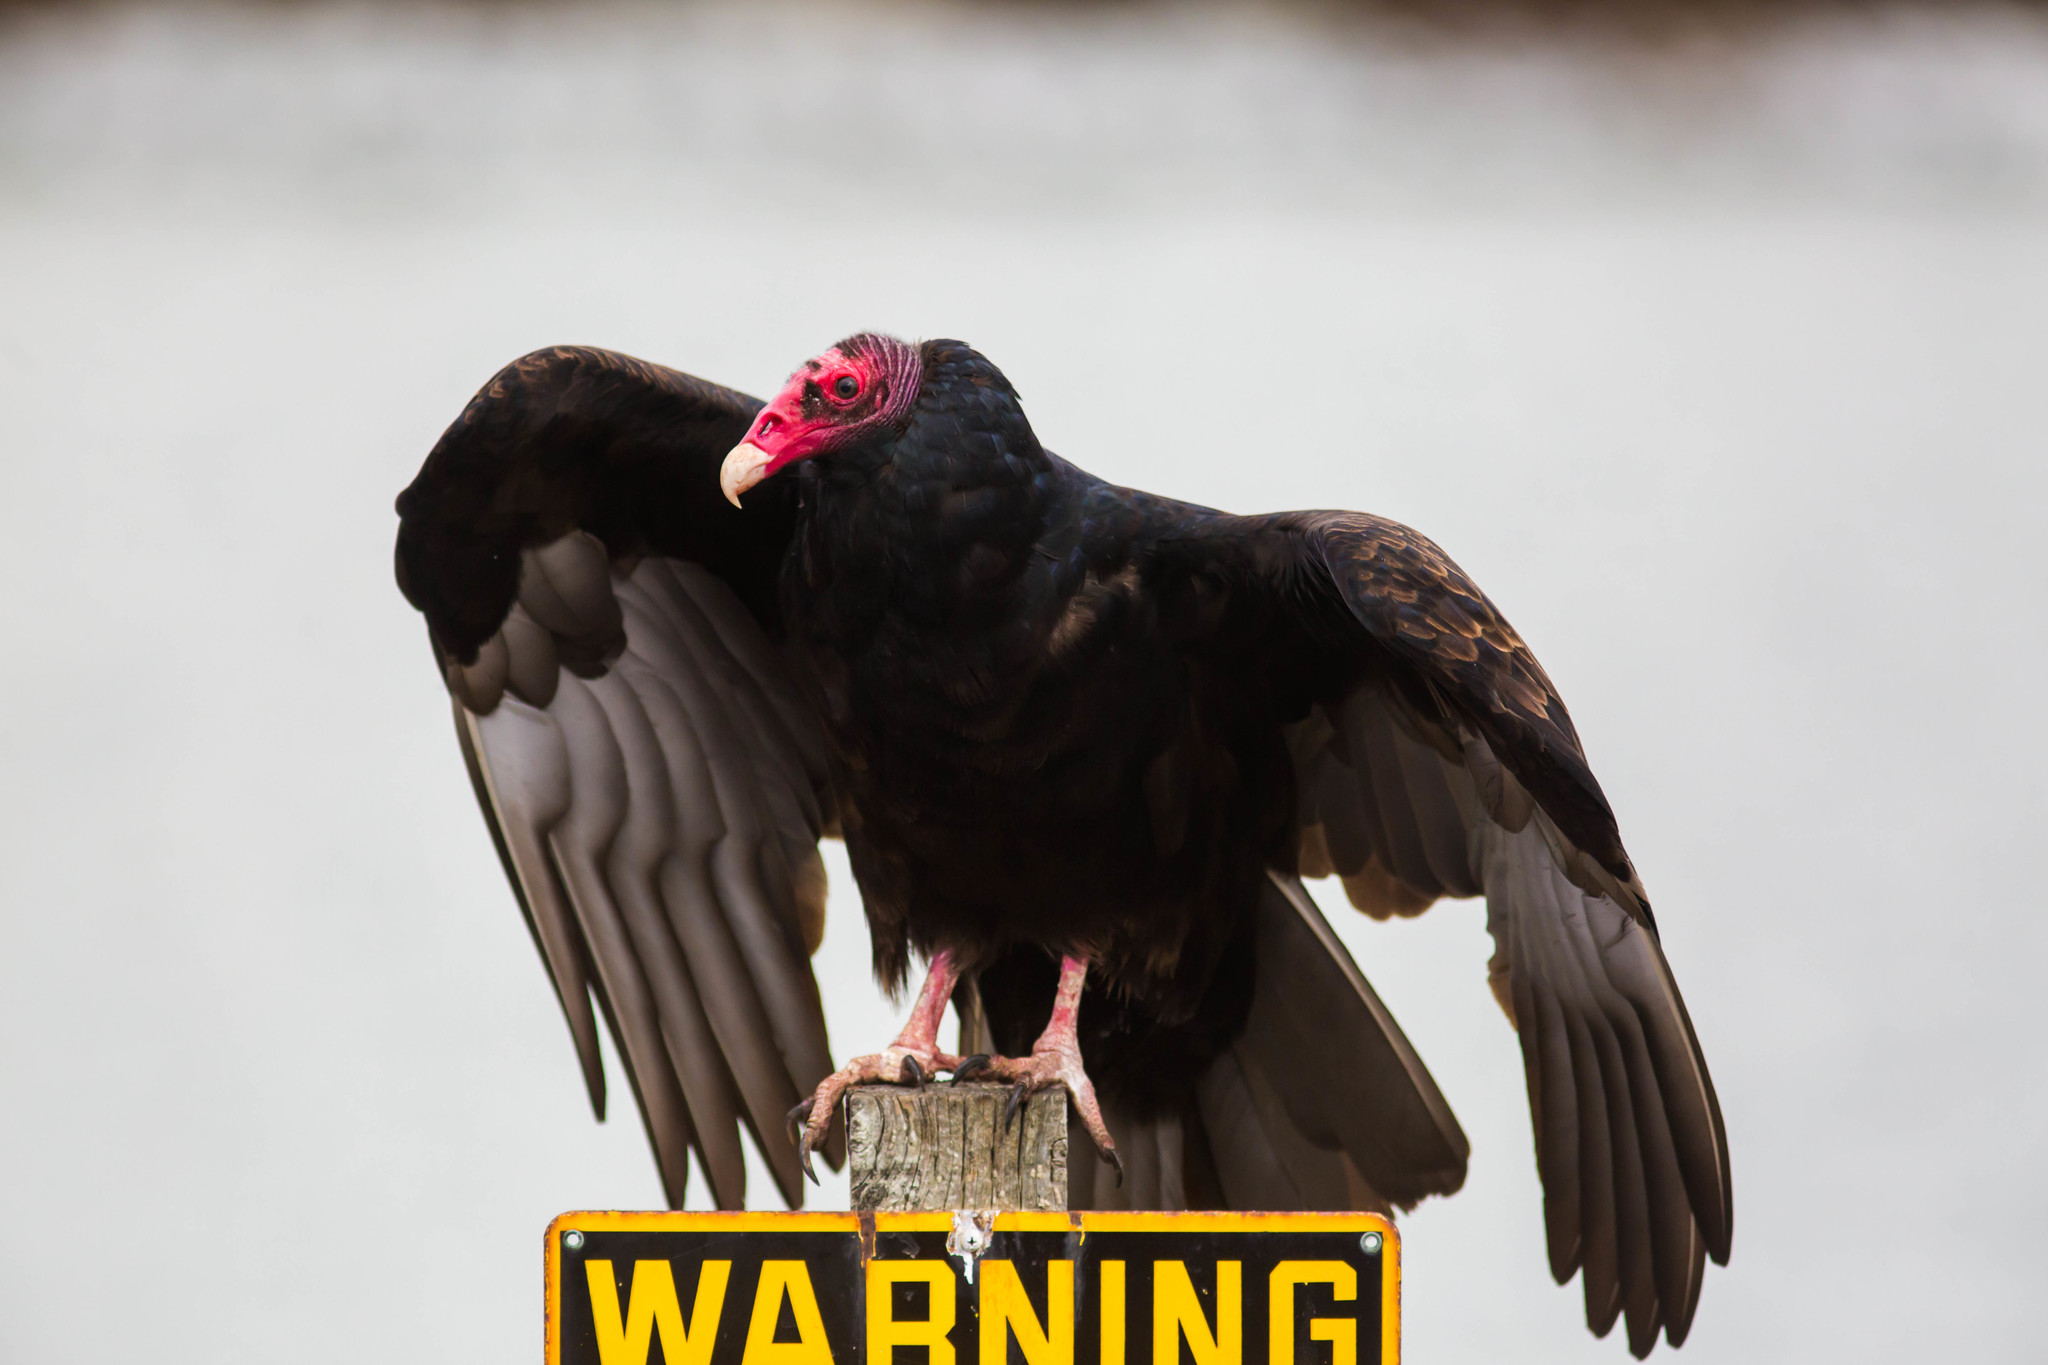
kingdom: Animalia
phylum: Chordata
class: Aves
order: Accipitriformes
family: Cathartidae
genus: Cathartes
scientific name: Cathartes aura
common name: Turkey vulture
